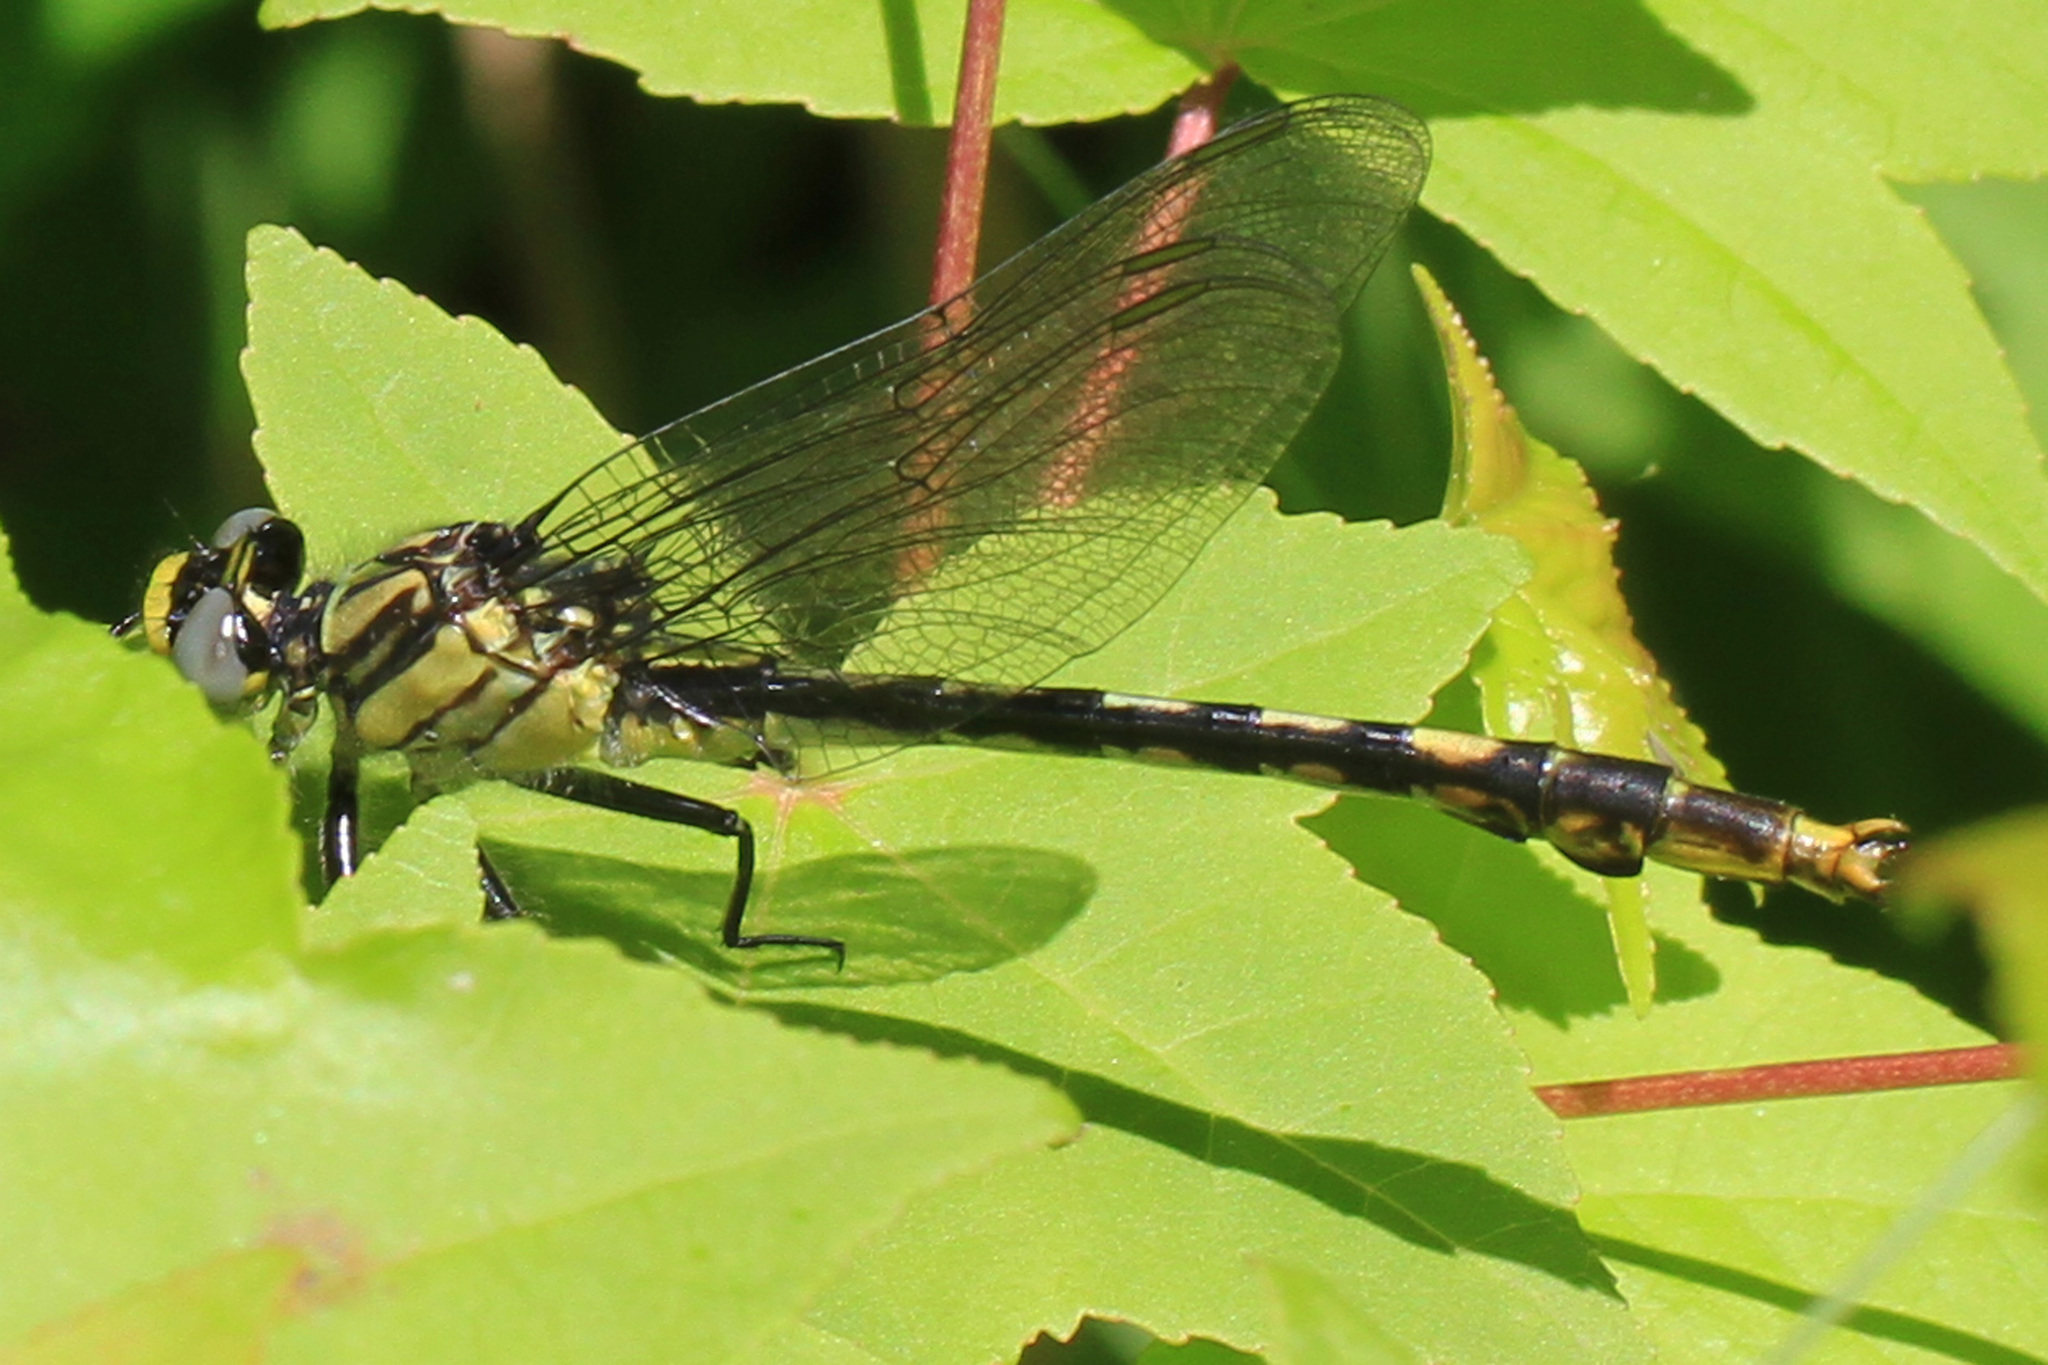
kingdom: Animalia
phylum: Arthropoda
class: Insecta
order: Odonata
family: Gomphidae
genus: Arigomphus
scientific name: Arigomphus villosipes
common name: Unicorn clubtail
